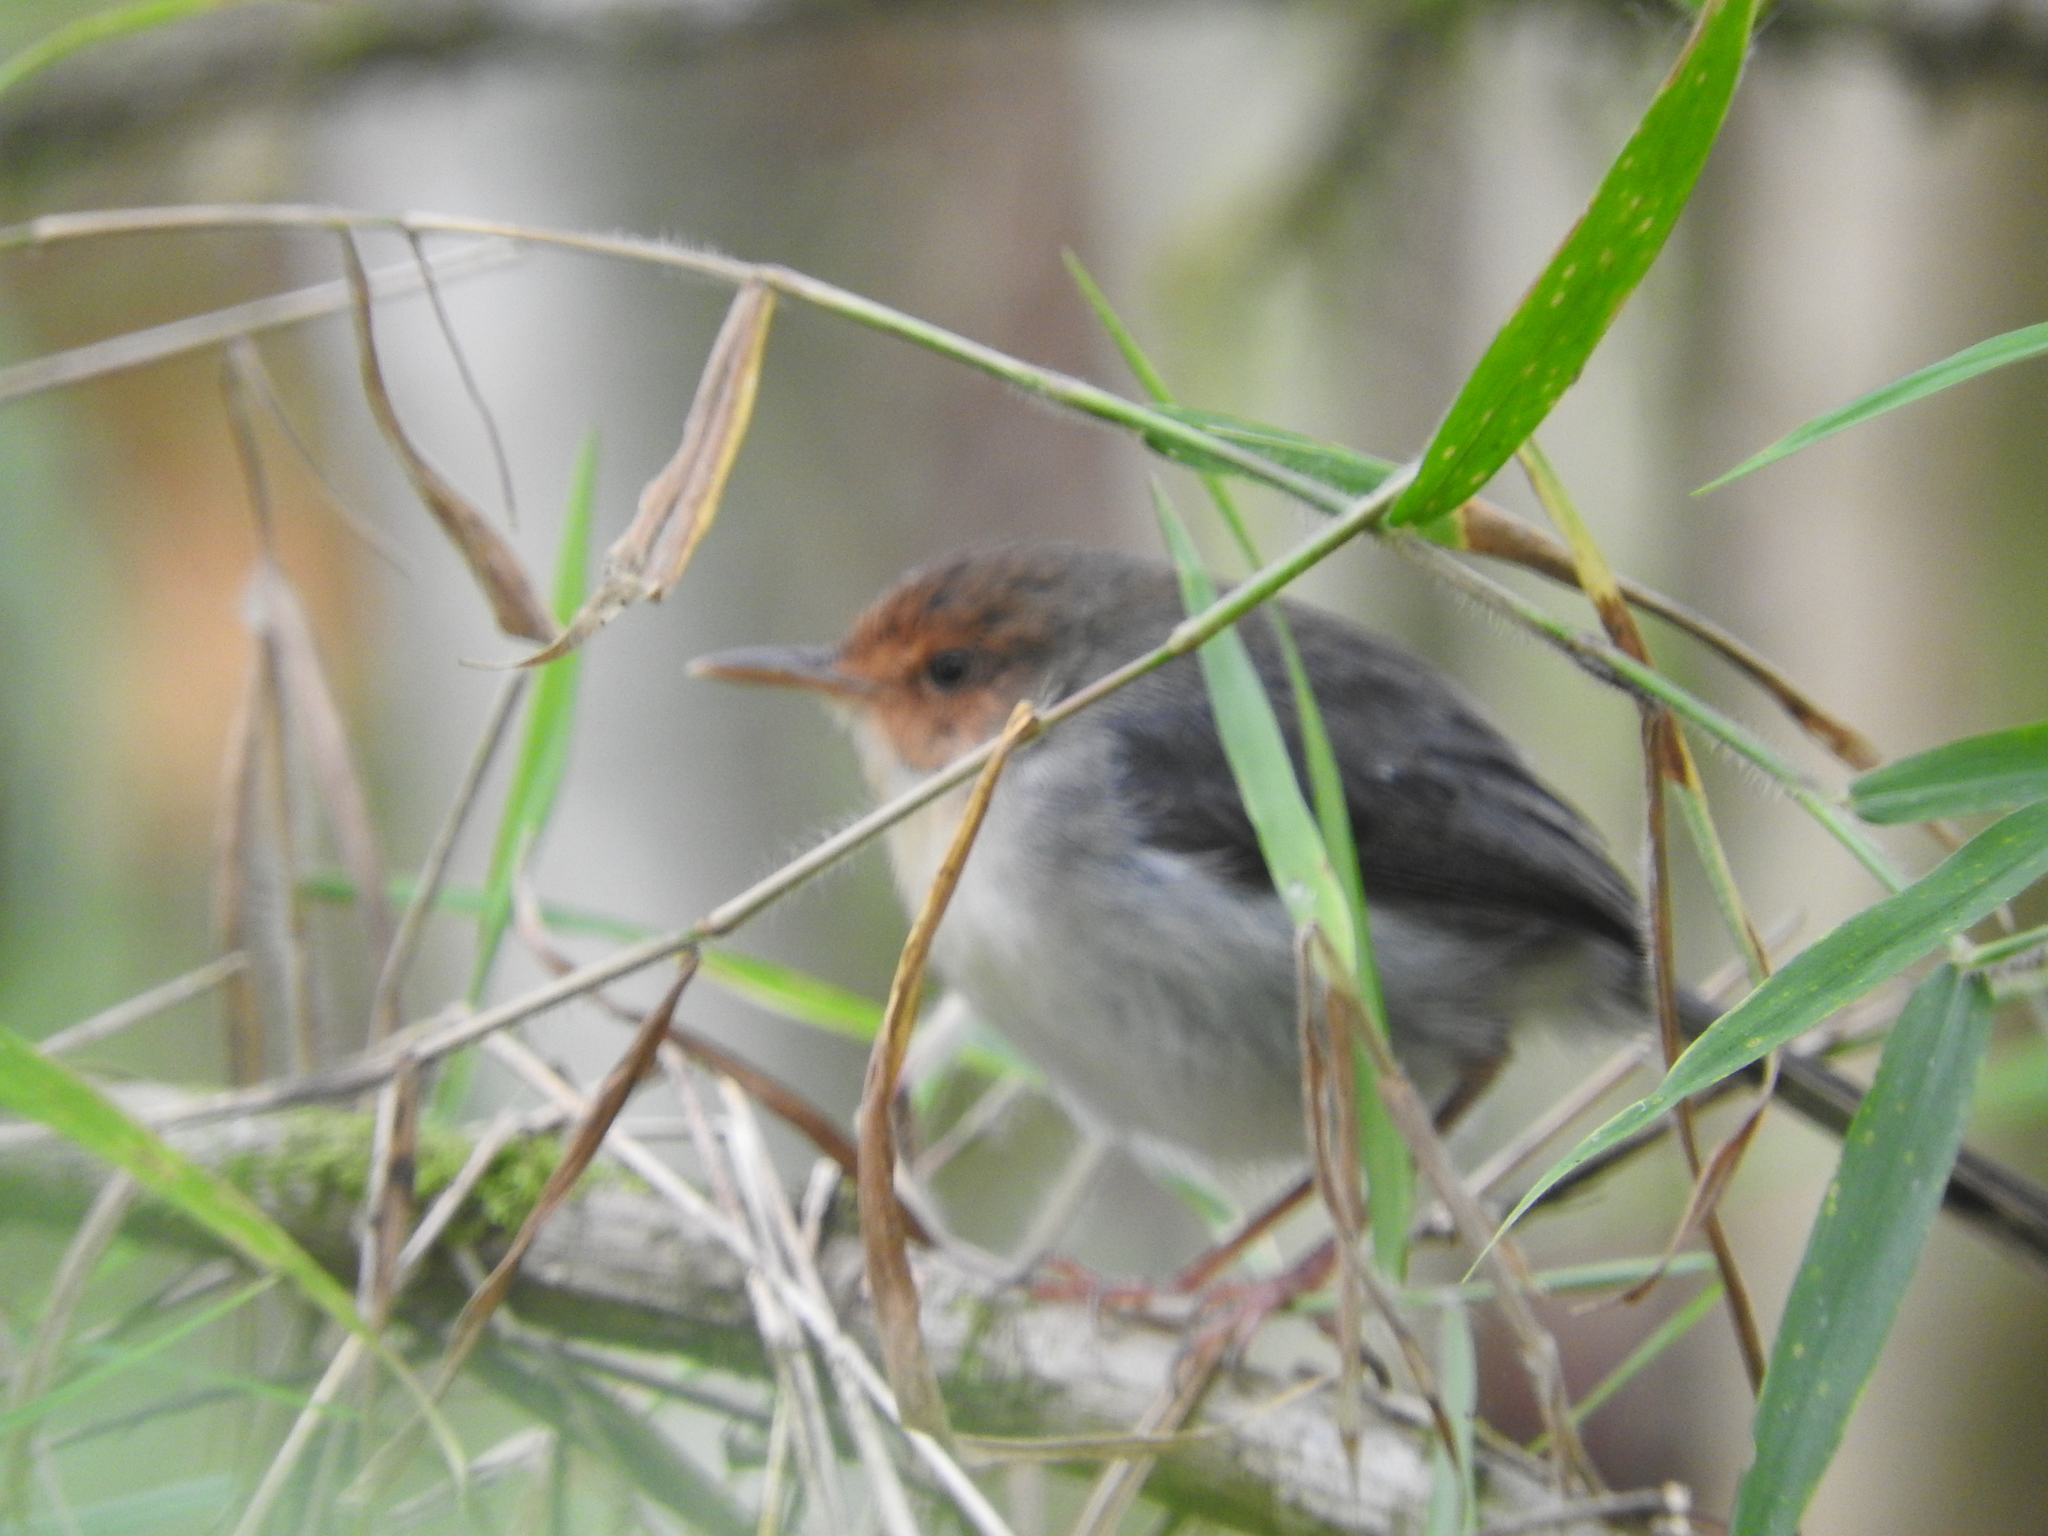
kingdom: Animalia
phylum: Chordata
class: Aves
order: Passeriformes
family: Cisticolidae
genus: Prinia
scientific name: Prinia molleri
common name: Sao tome prinia
